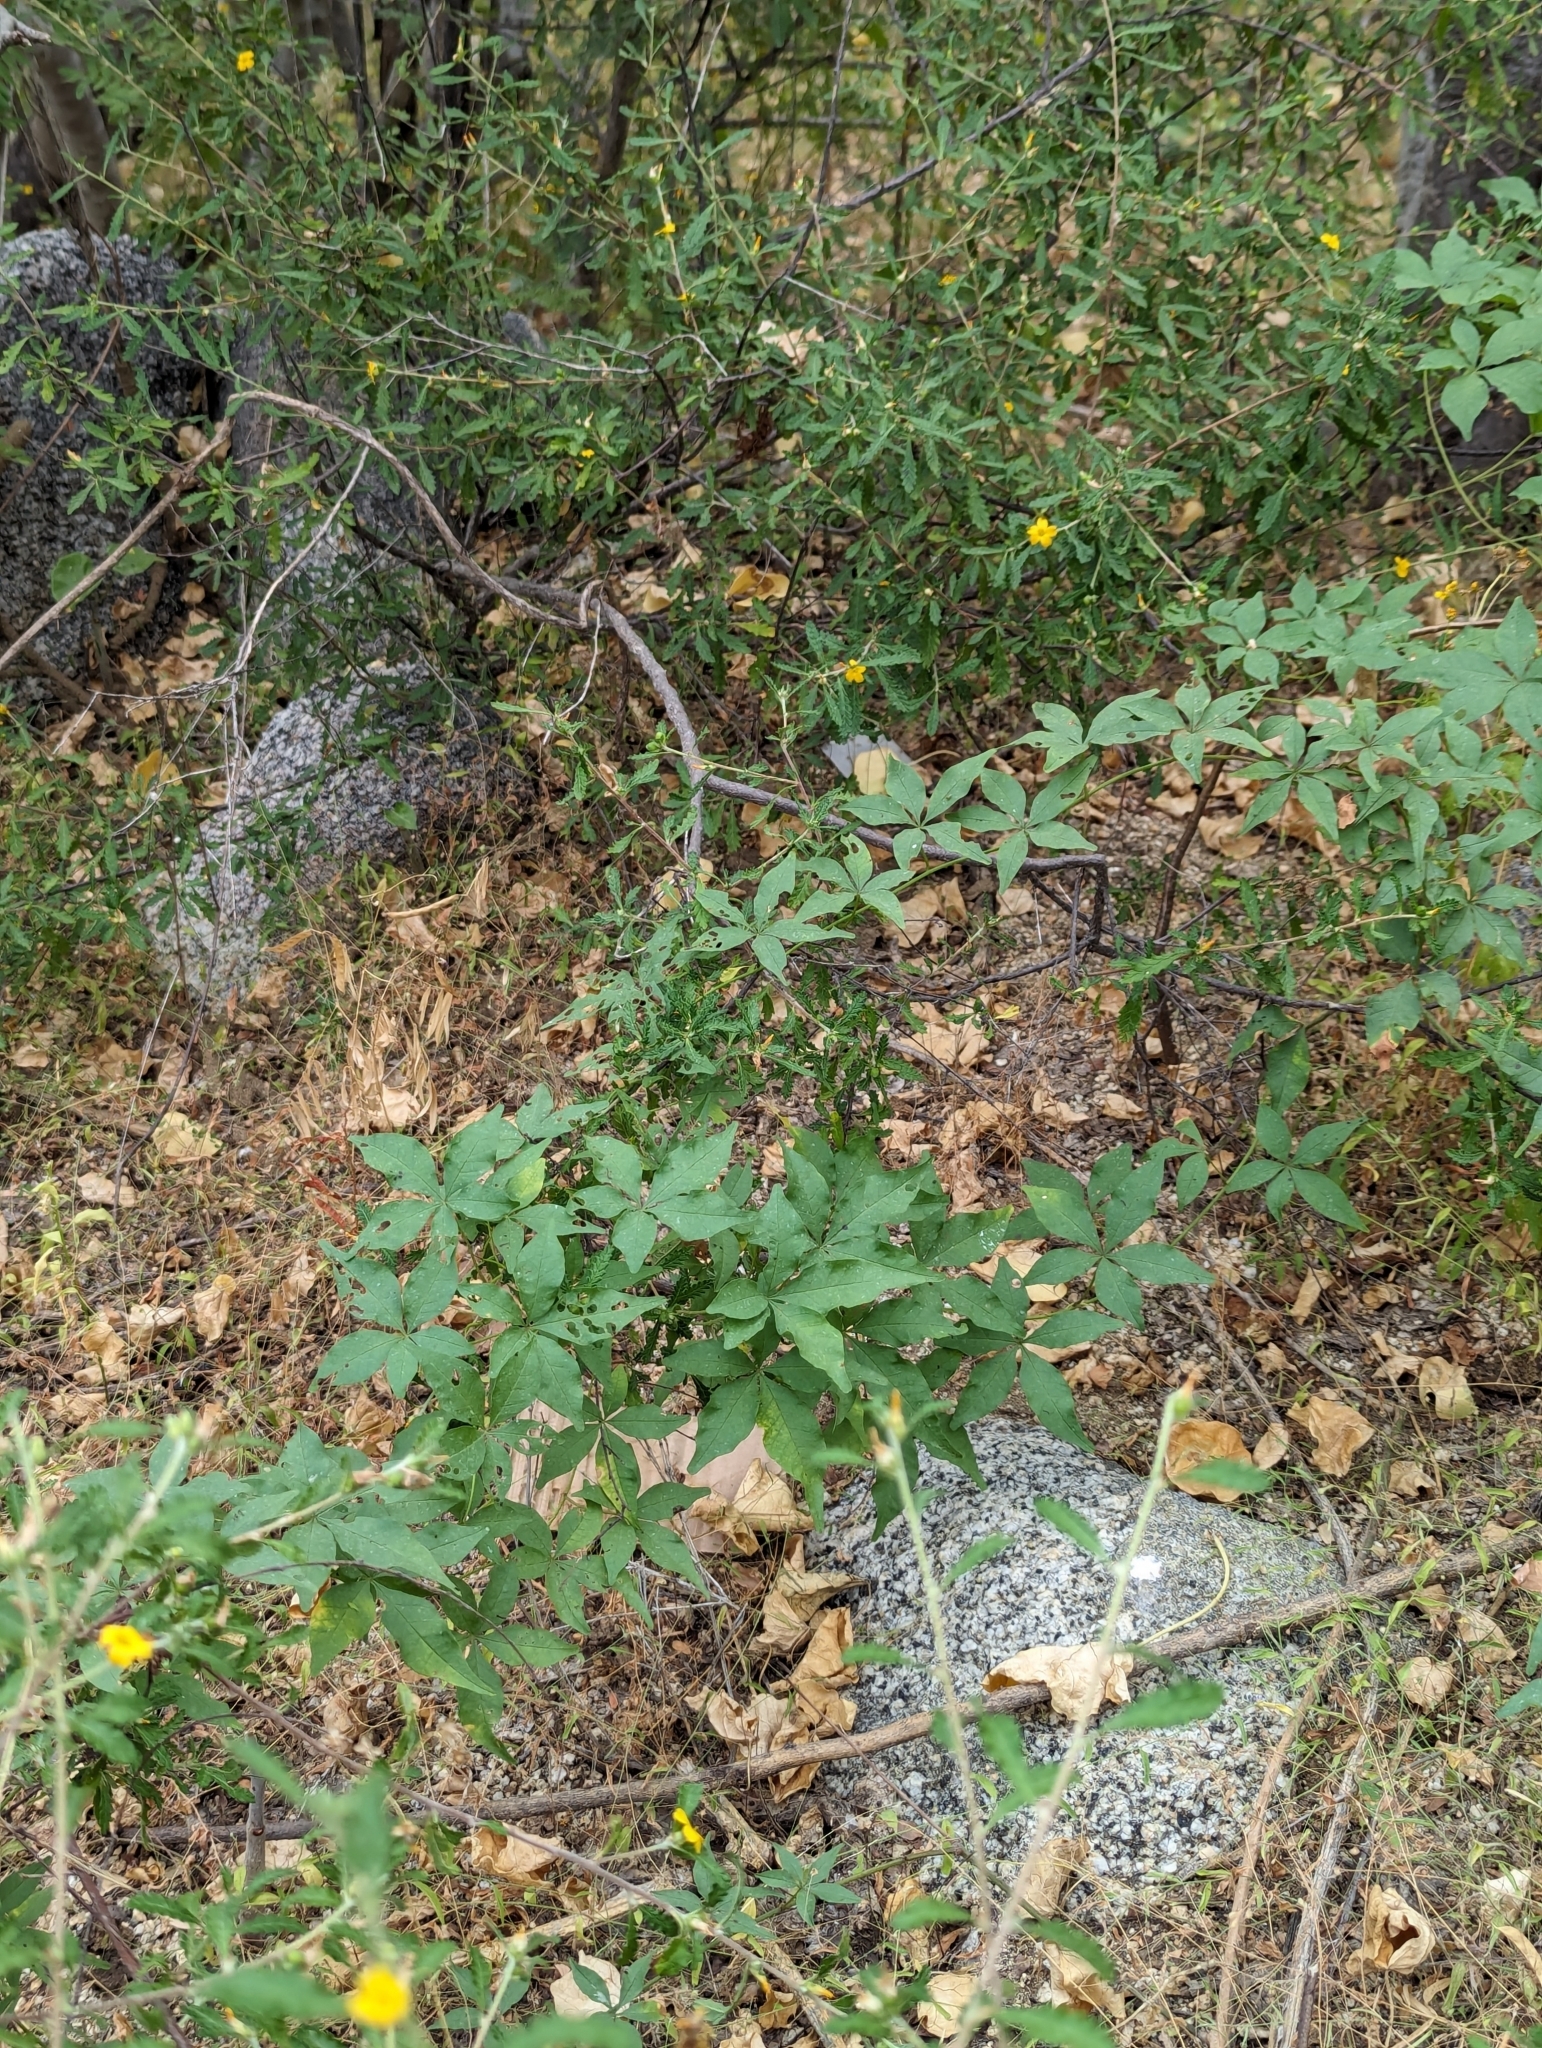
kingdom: Plantae
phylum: Tracheophyta
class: Magnoliopsida
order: Solanales
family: Convolvulaceae
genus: Distimake
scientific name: Distimake aureus
